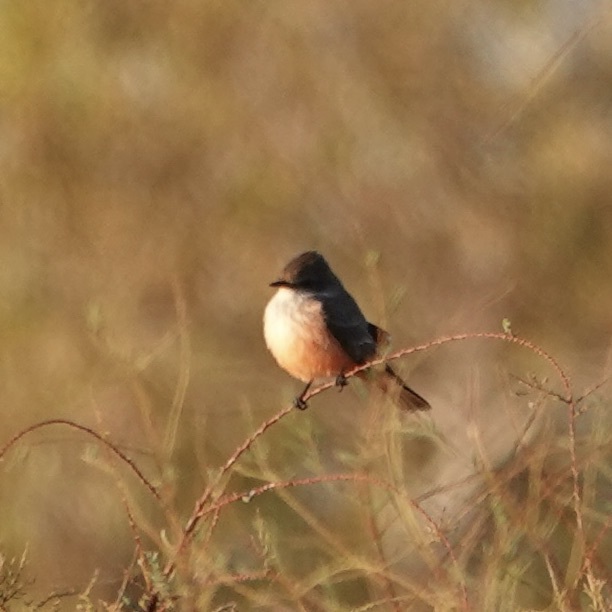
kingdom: Animalia
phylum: Chordata
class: Aves
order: Passeriformes
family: Tyrannidae
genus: Pyrocephalus
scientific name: Pyrocephalus rubinus
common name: Vermilion flycatcher
